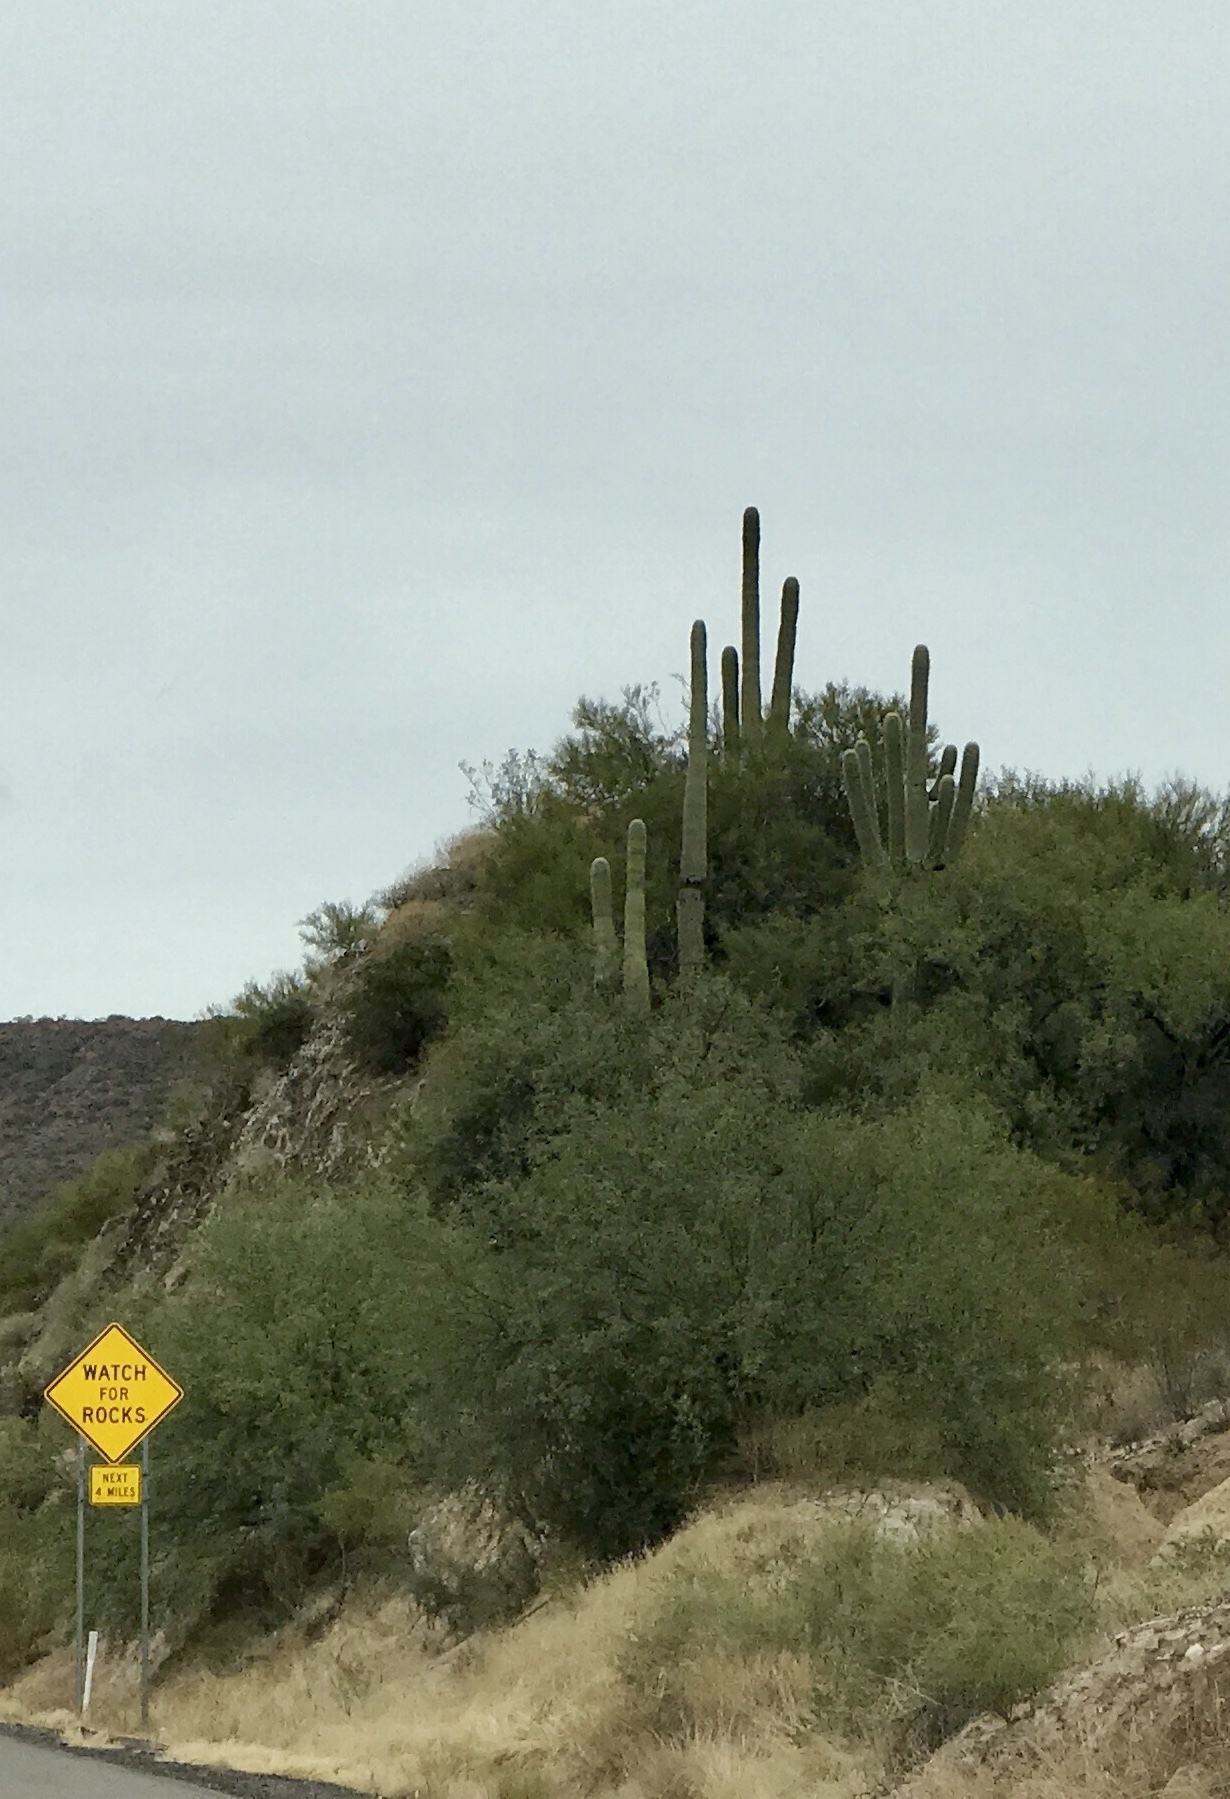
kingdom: Plantae
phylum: Tracheophyta
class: Magnoliopsida
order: Caryophyllales
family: Cactaceae
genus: Carnegiea
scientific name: Carnegiea gigantea
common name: Saguaro
